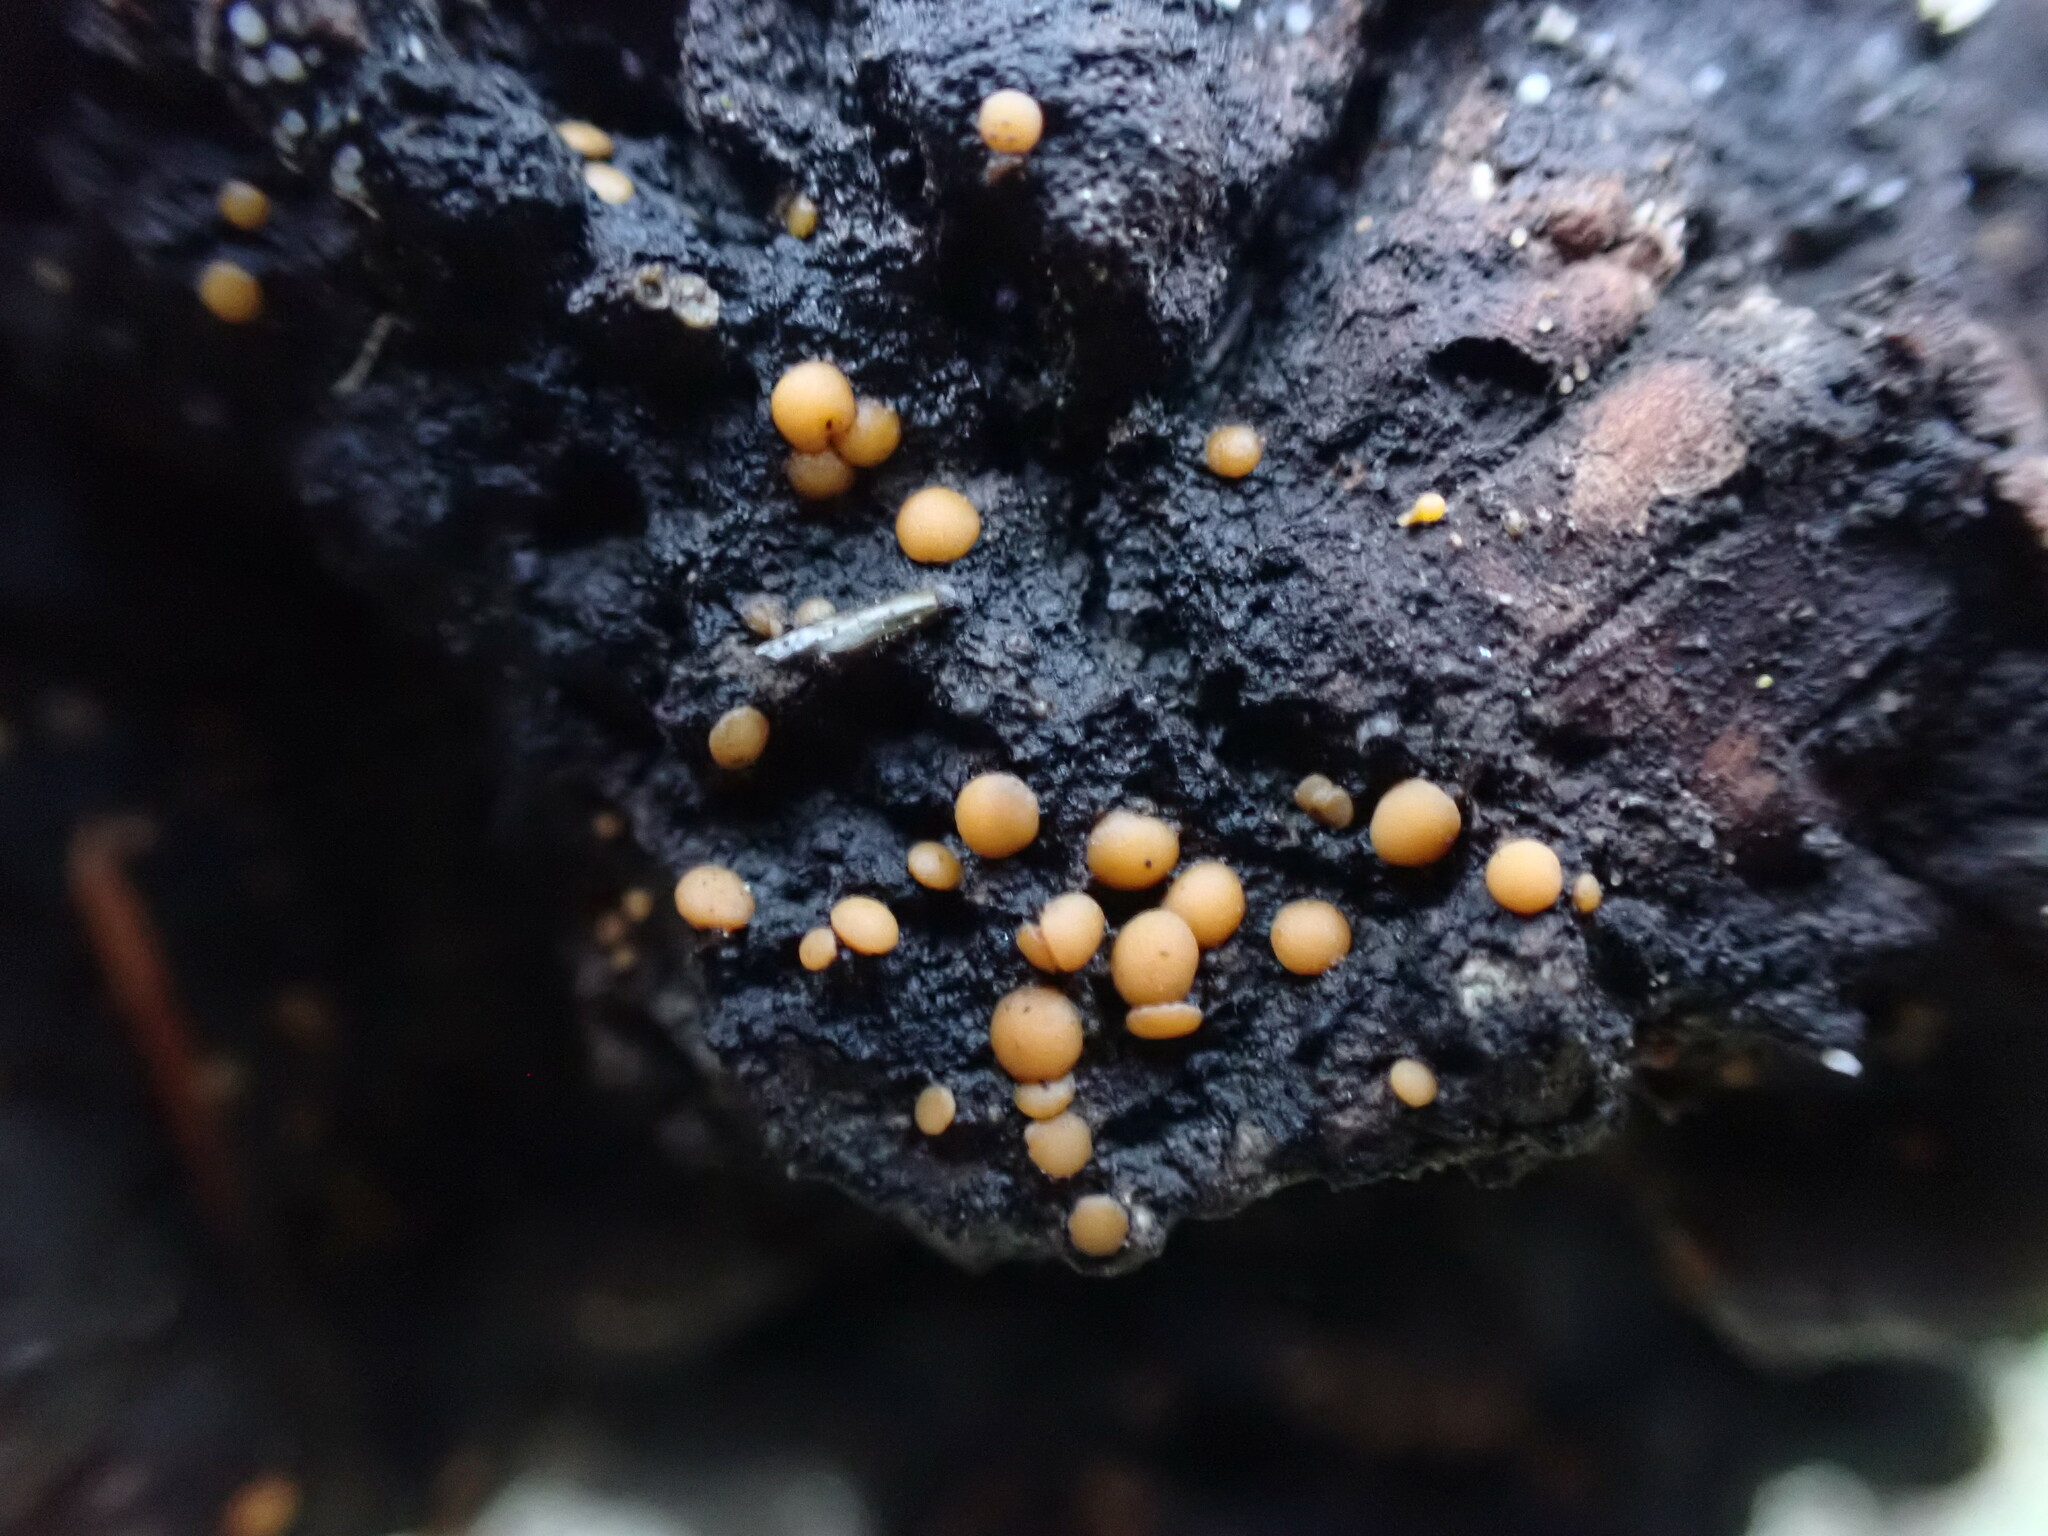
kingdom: Fungi
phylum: Ascomycota
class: Sareomycetes
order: Sareales
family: Sareaceae
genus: Sarea
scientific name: Sarea resinae
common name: Sarea lichen
